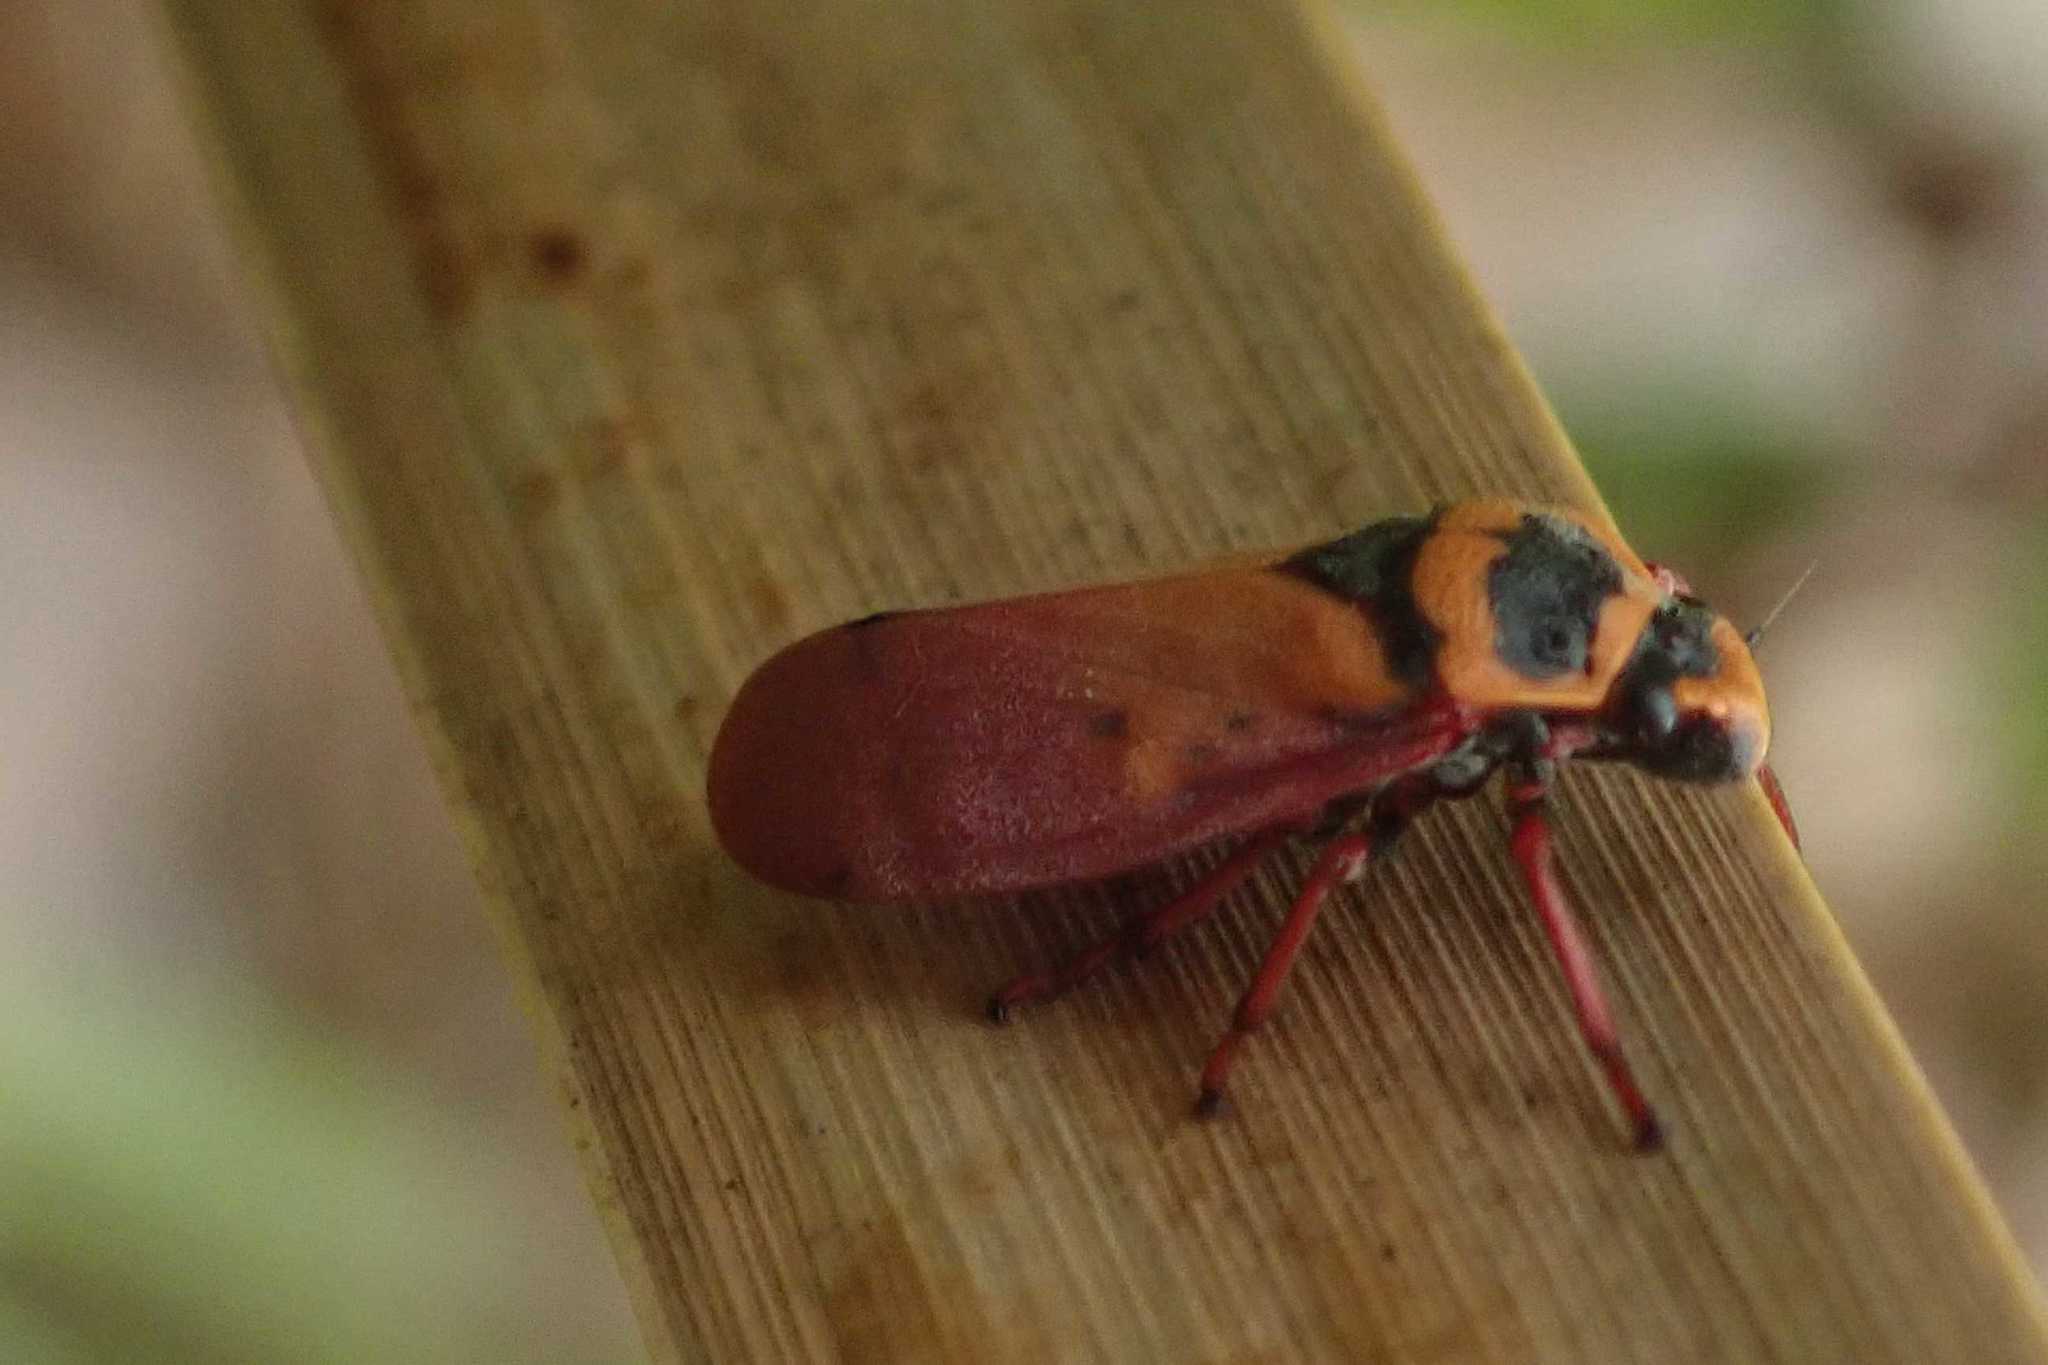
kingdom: Animalia
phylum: Arthropoda
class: Insecta
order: Hemiptera
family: Cercopidae
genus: Locris
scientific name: Locris areata
